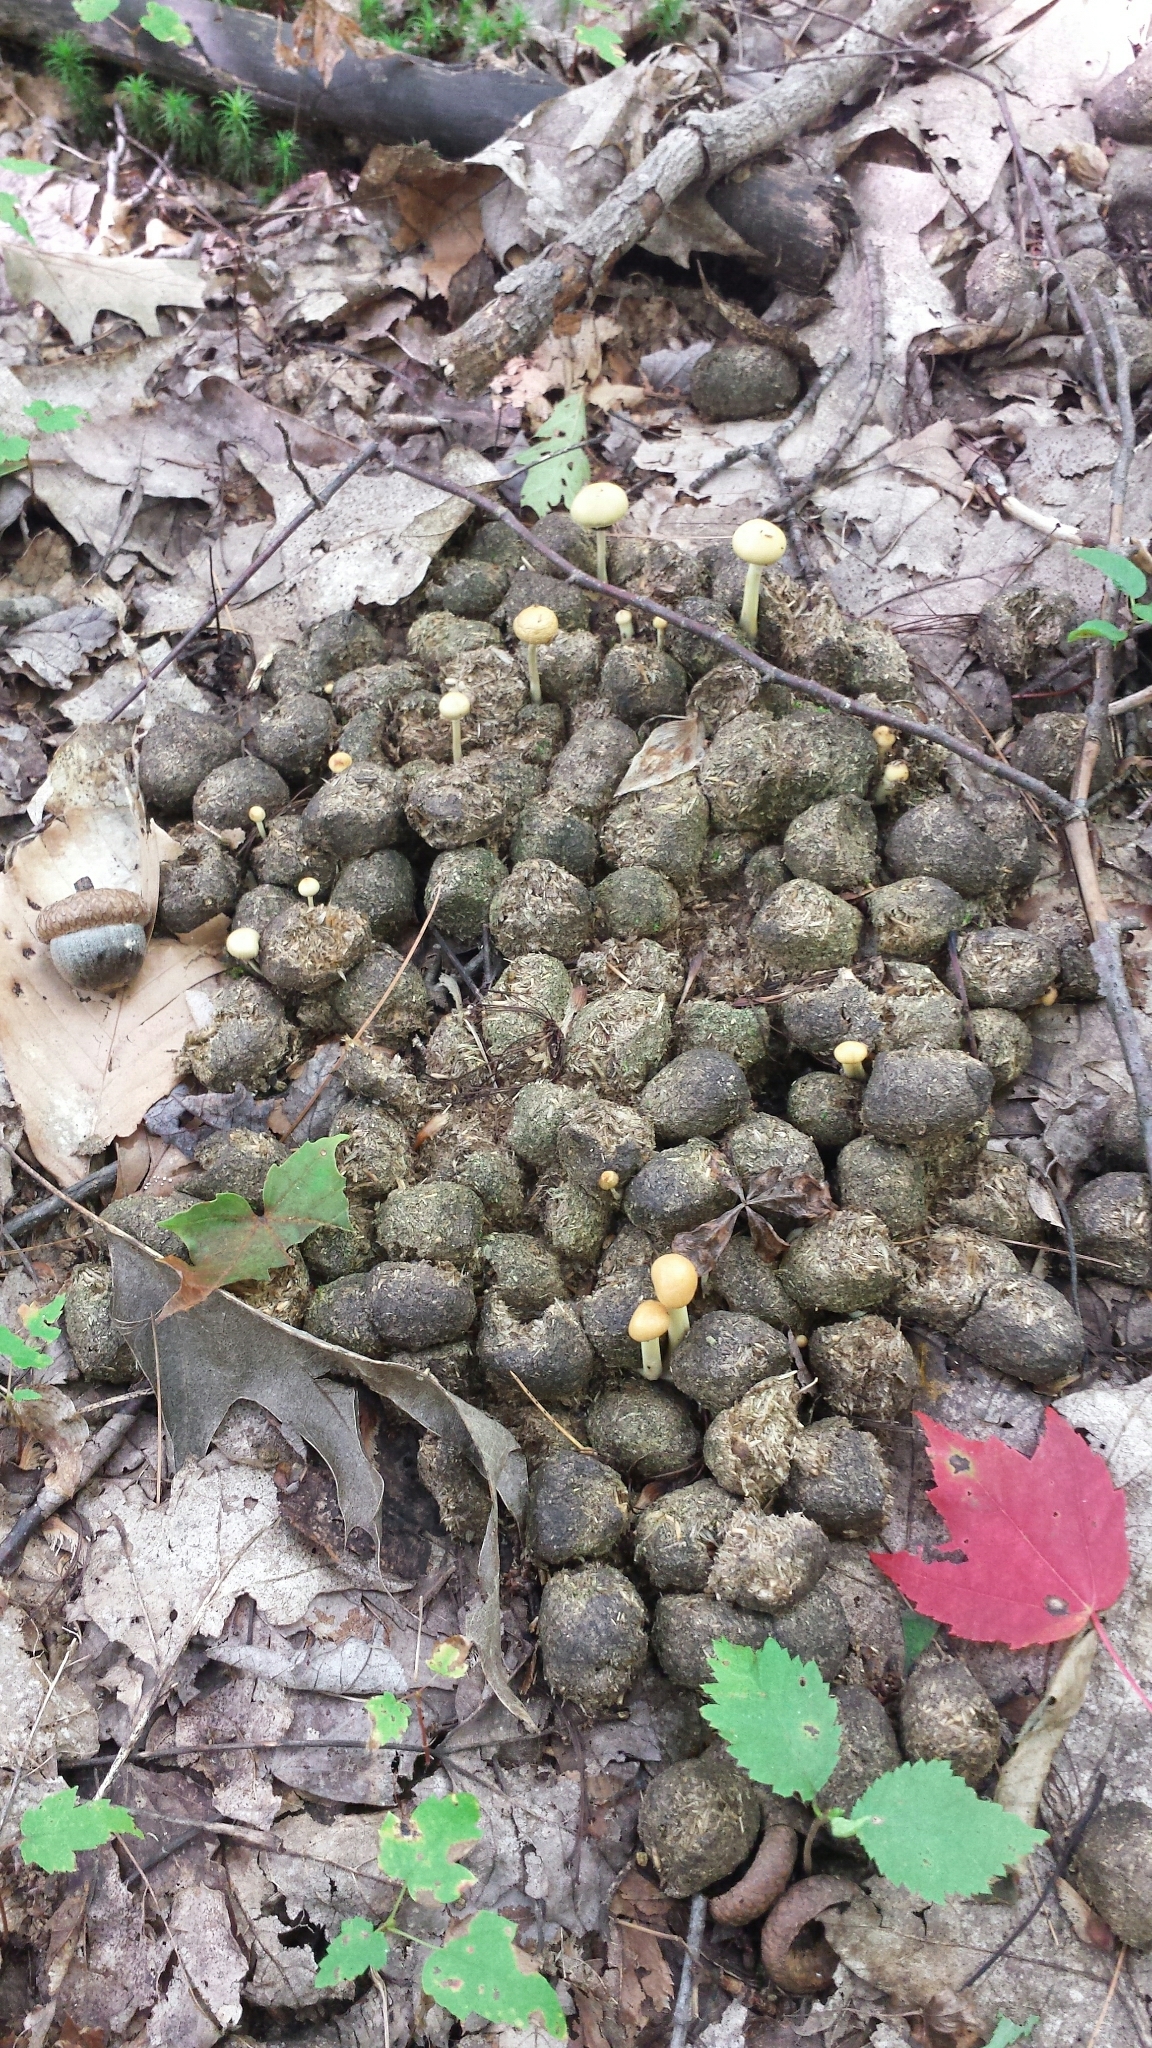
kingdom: Animalia
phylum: Chordata
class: Mammalia
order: Artiodactyla
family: Cervidae
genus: Alces
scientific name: Alces alces
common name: Moose
